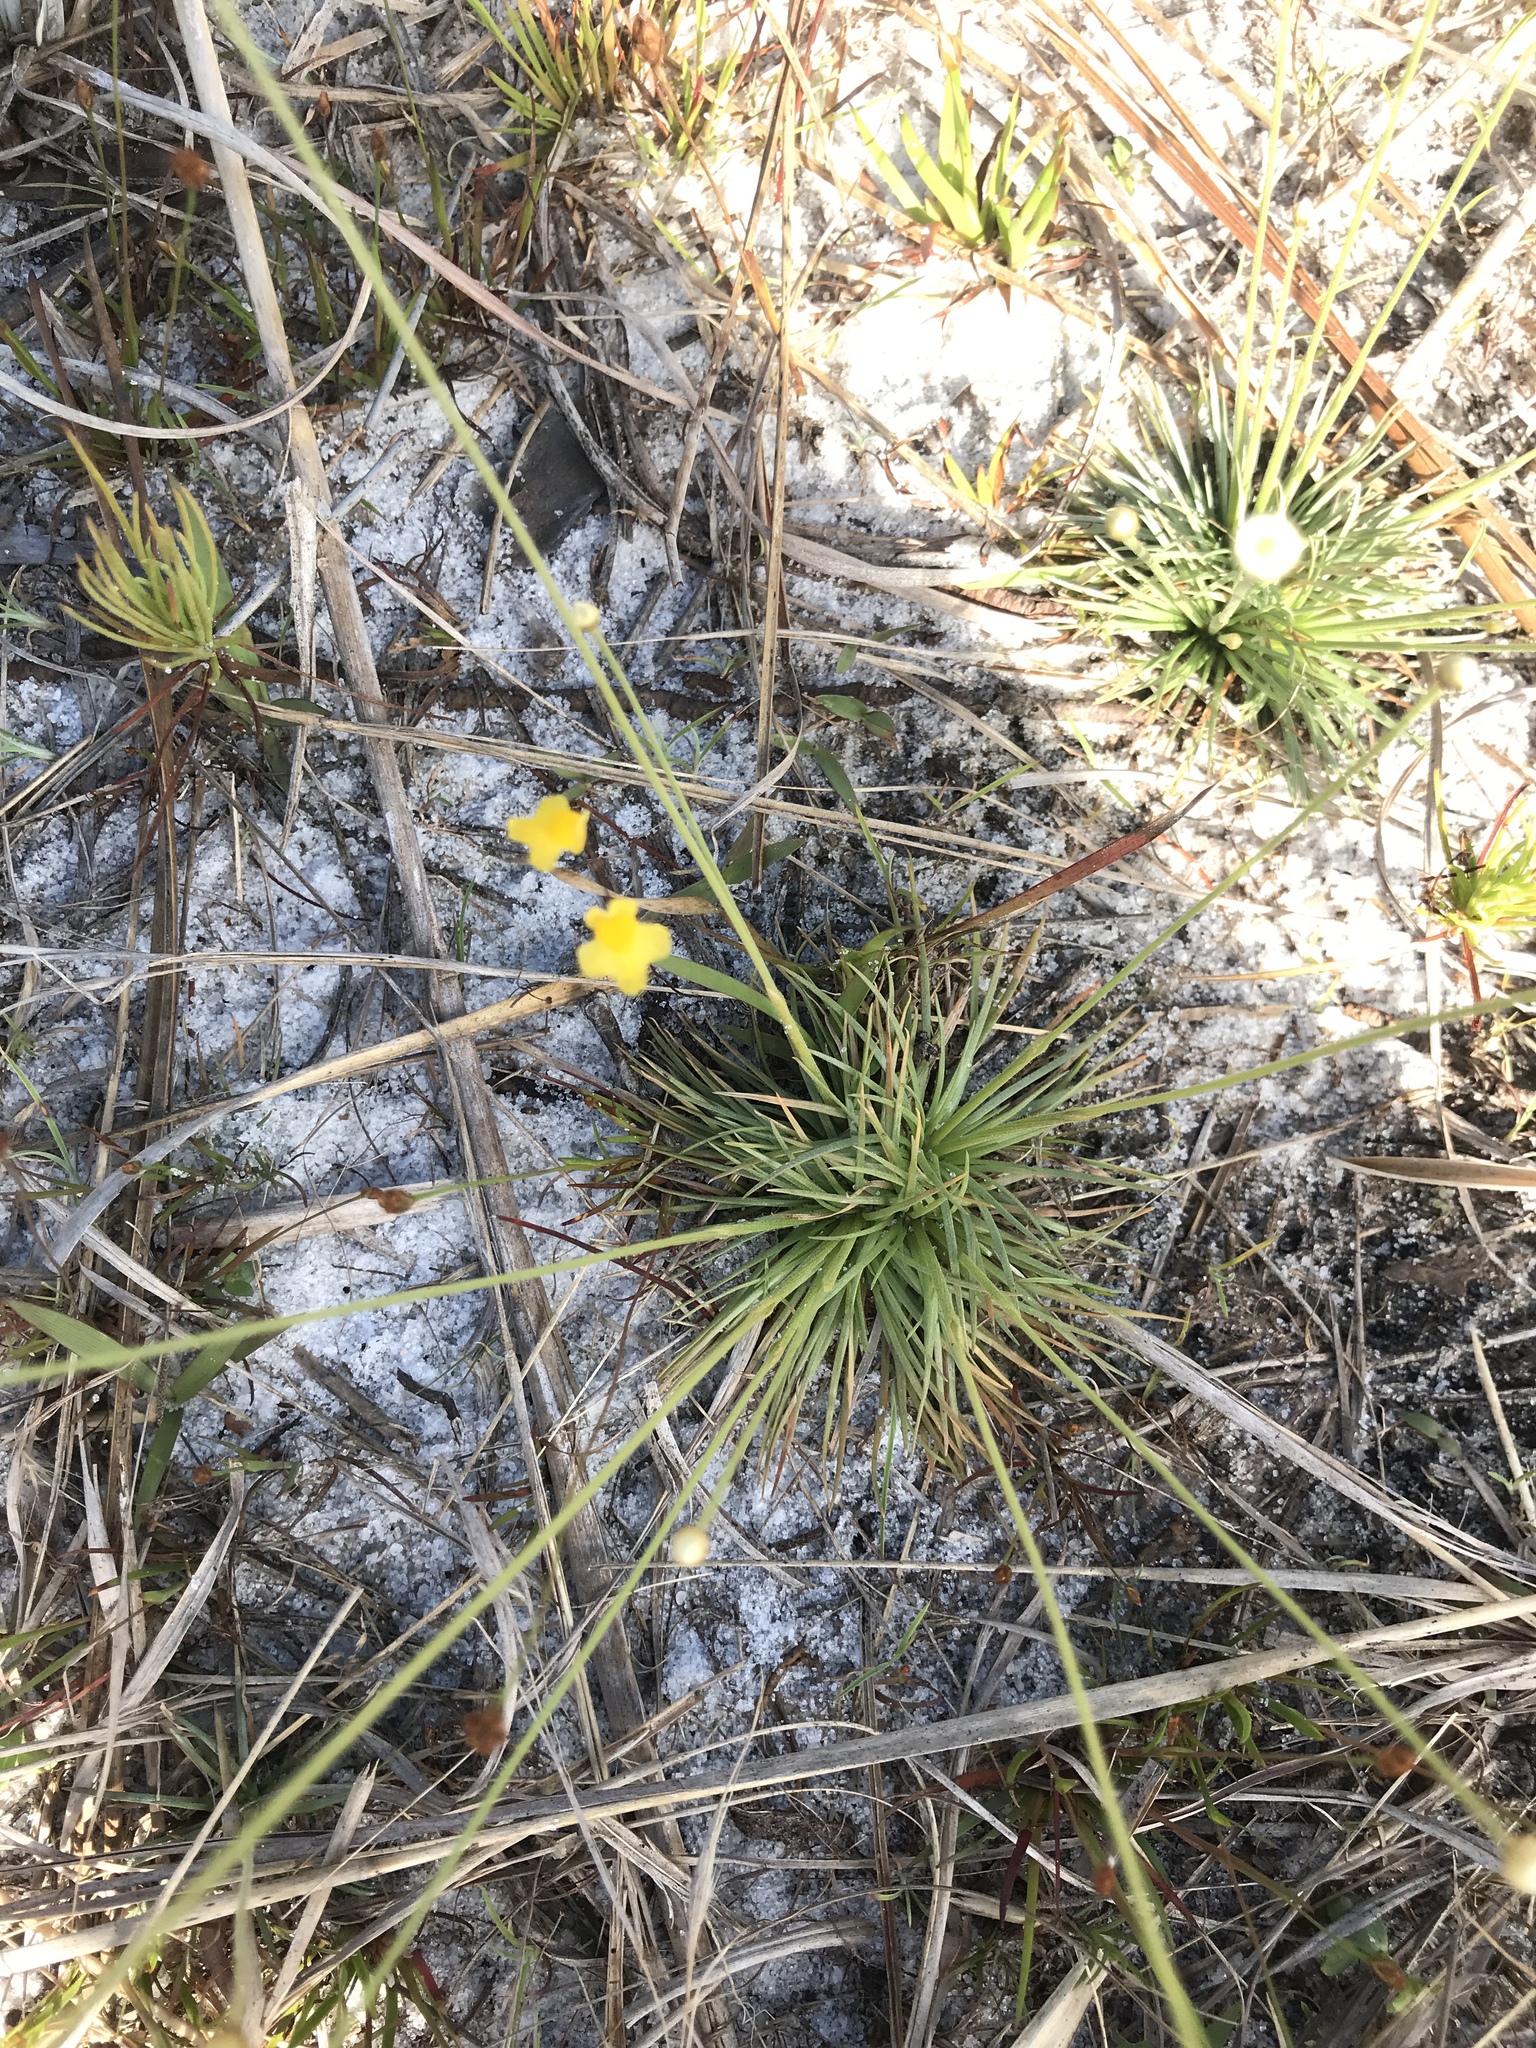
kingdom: Plantae
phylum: Tracheophyta
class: Magnoliopsida
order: Lamiales
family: Lentibulariaceae
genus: Utricularia
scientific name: Utricularia subulata
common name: Tiny bladderwort
